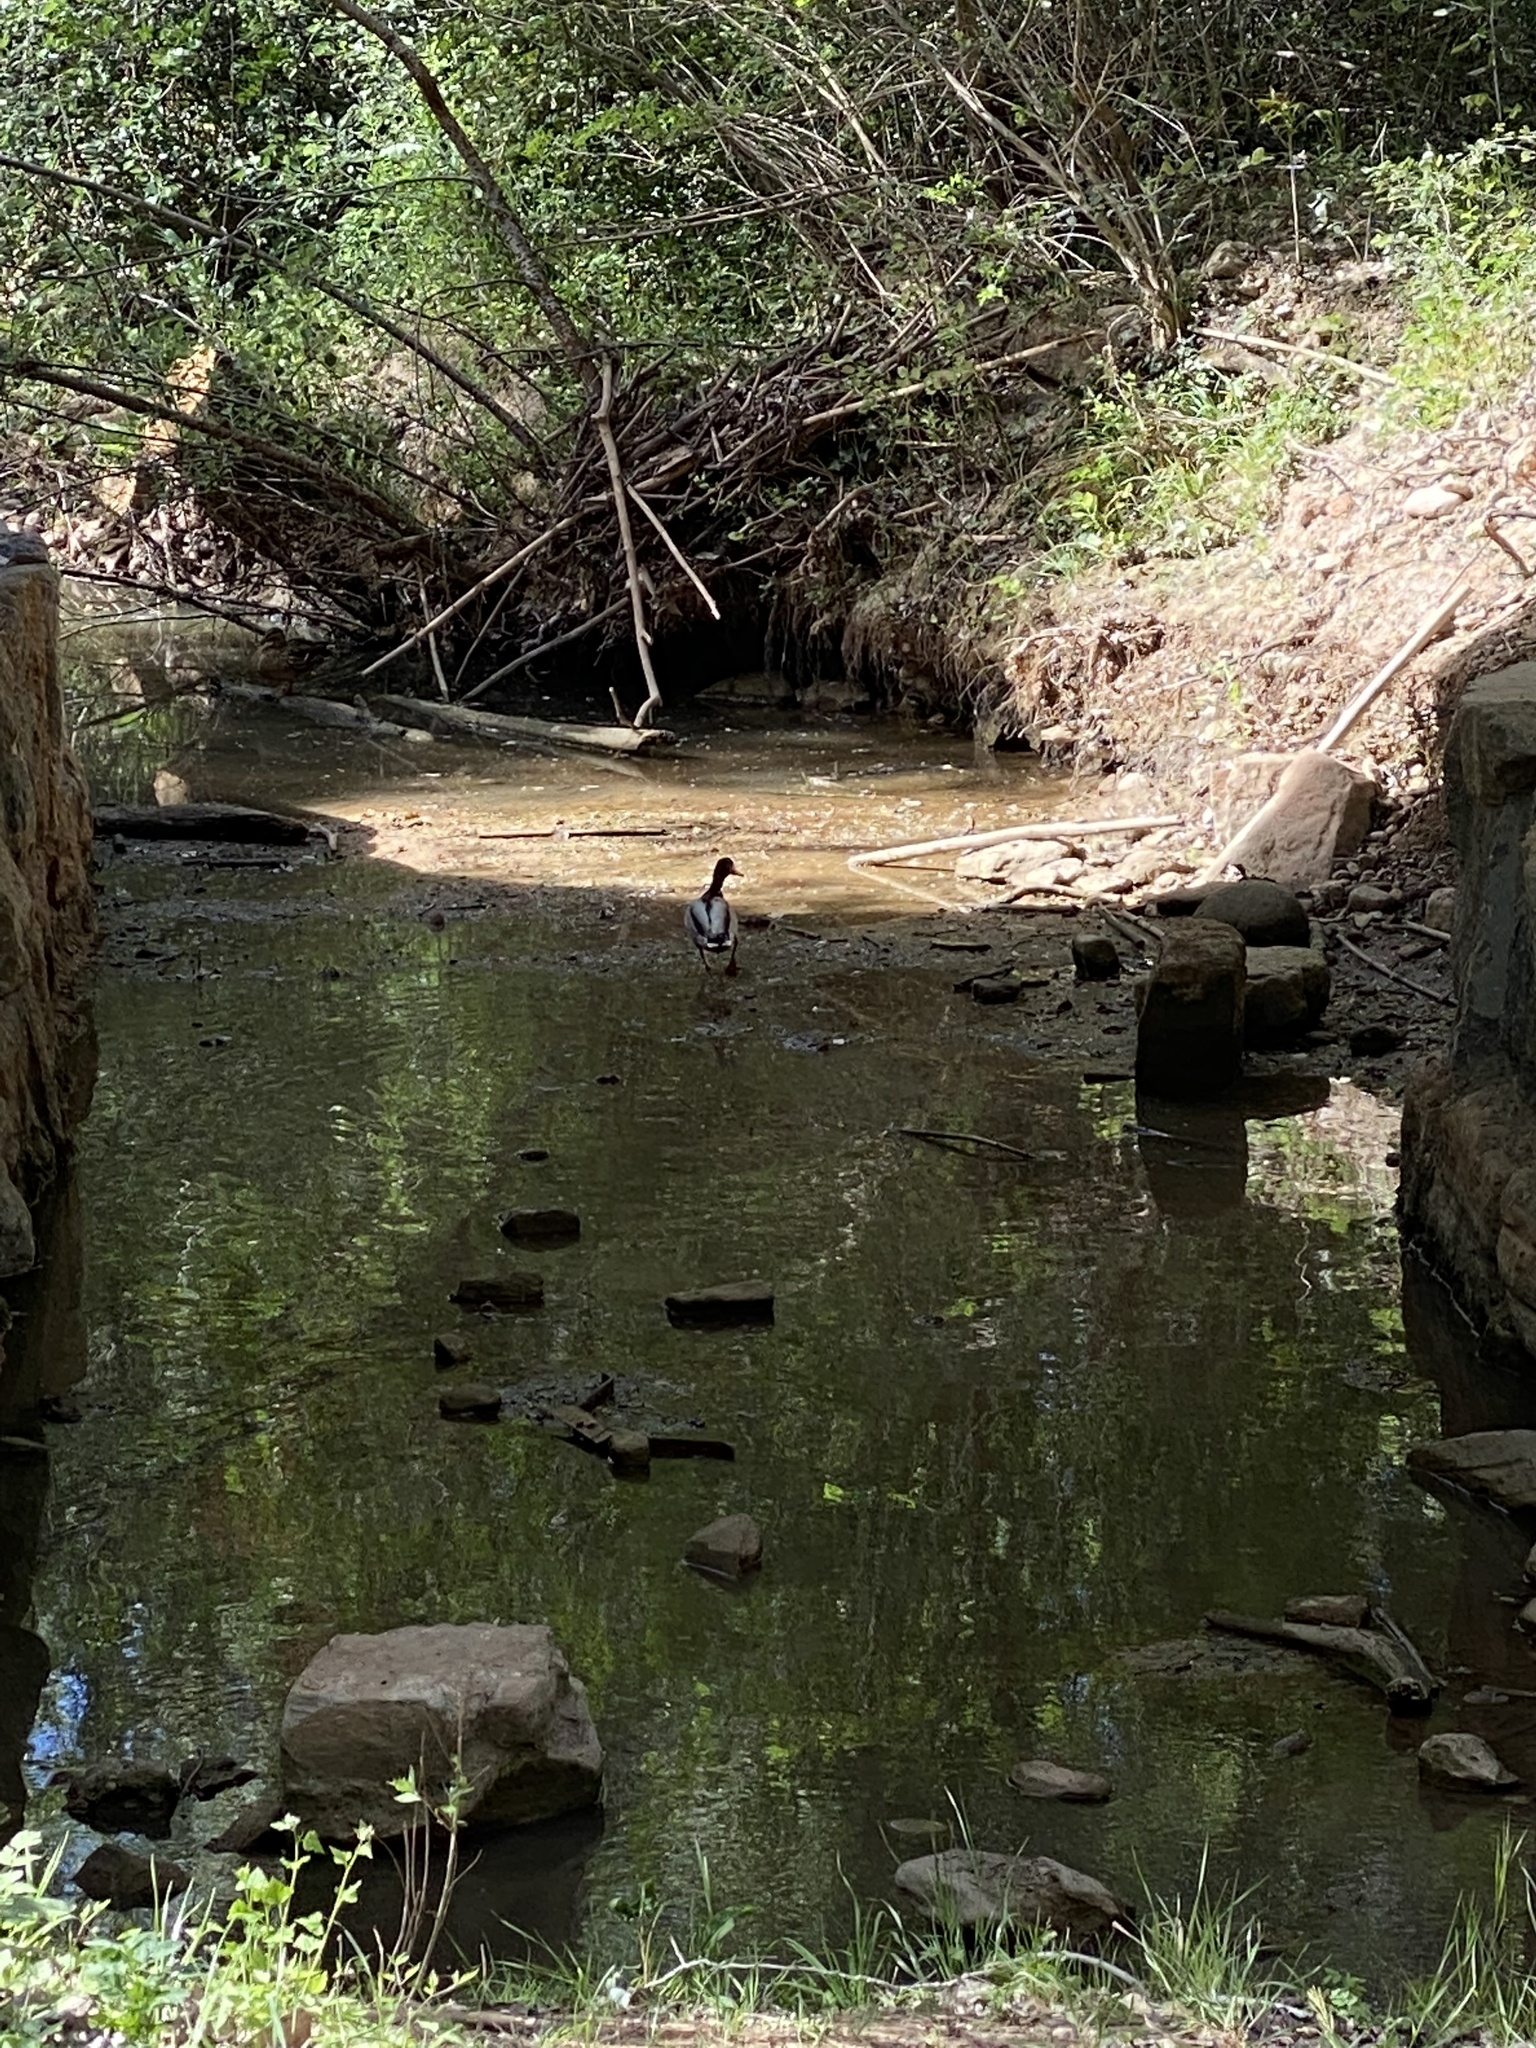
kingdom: Animalia
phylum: Chordata
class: Aves
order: Anseriformes
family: Anatidae
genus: Anas
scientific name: Anas platyrhynchos
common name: Mallard
